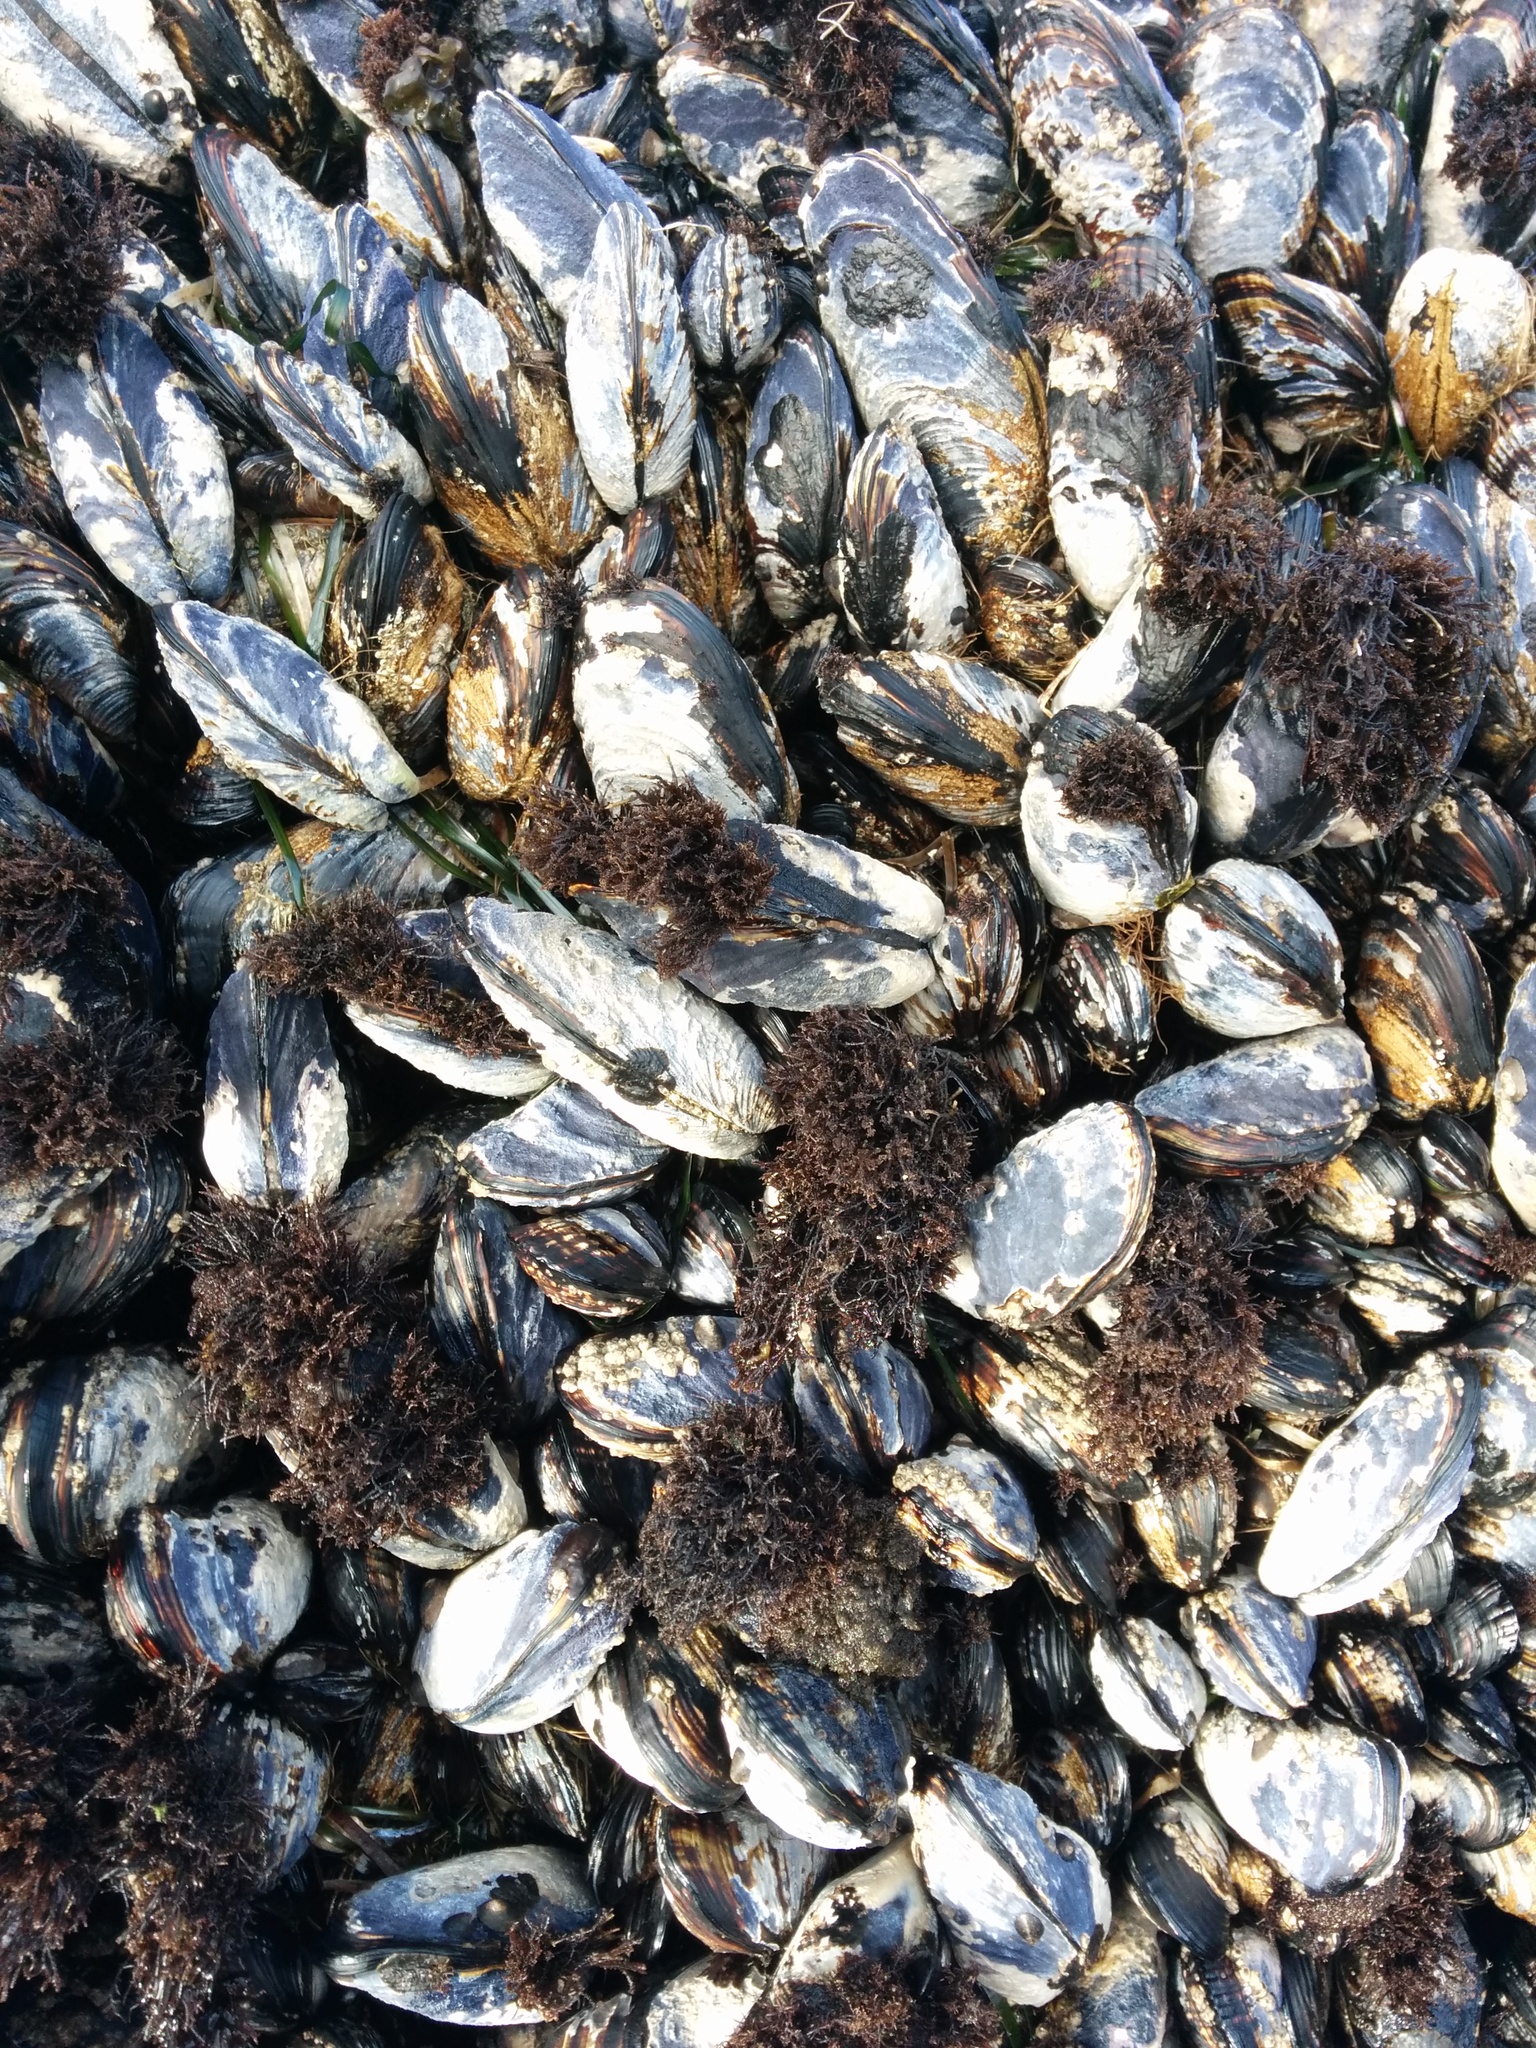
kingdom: Animalia
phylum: Mollusca
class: Bivalvia
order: Mytilida
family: Mytilidae
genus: Mytilus
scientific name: Mytilus californianus
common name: California mussel
